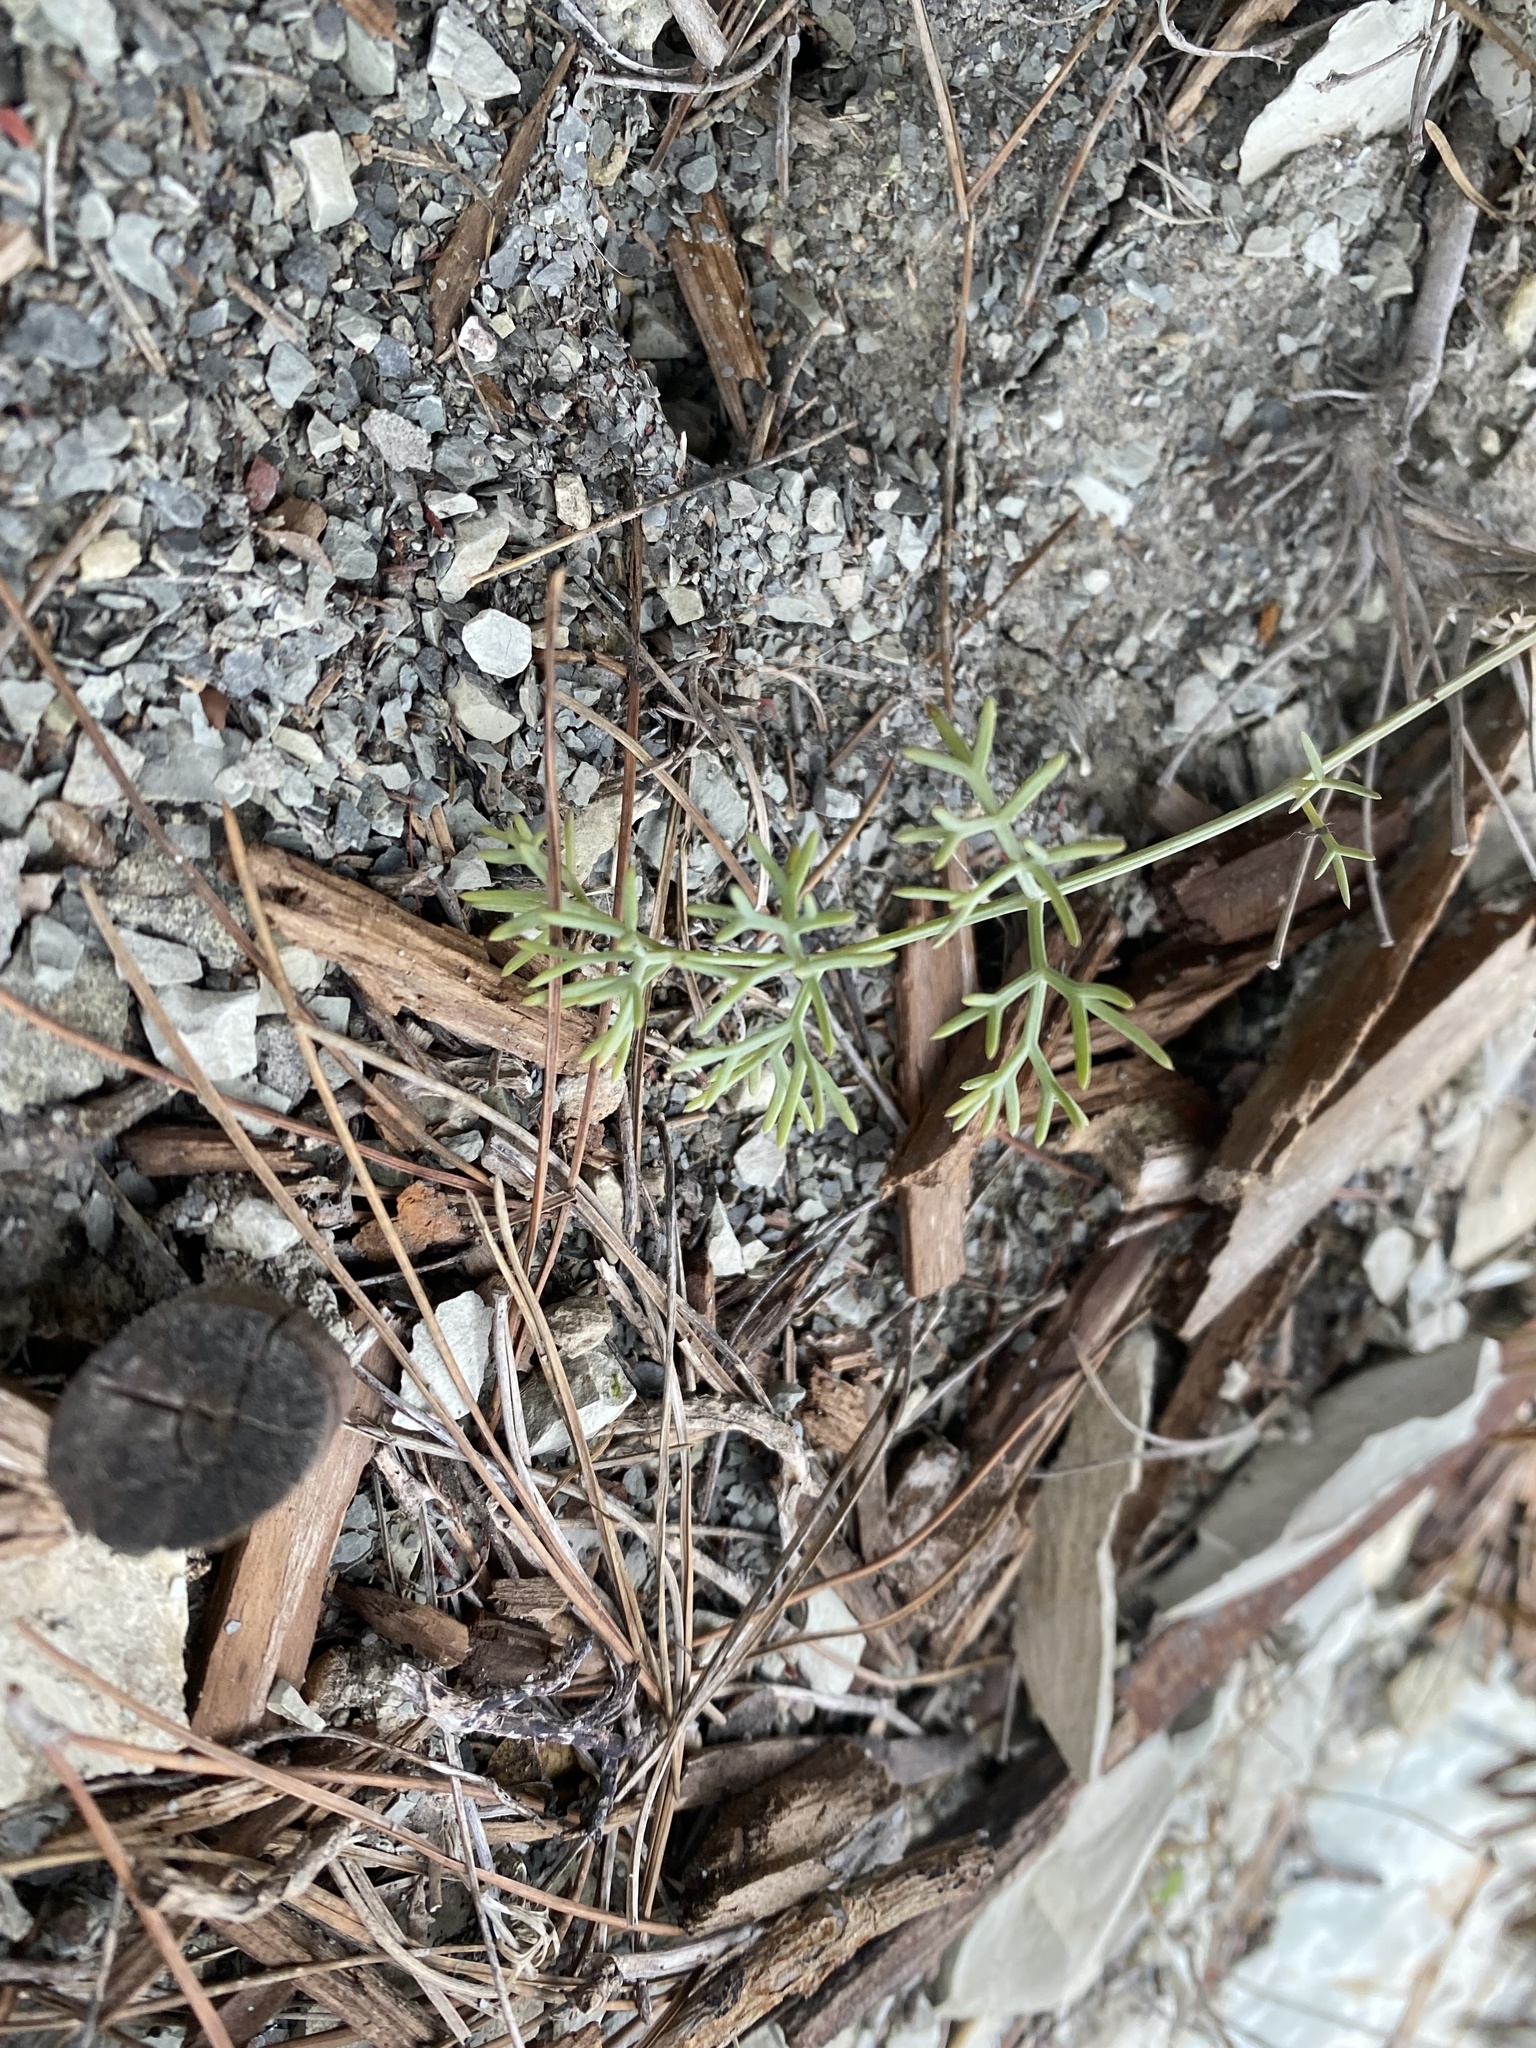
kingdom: Plantae
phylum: Tracheophyta
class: Magnoliopsida
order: Apiales
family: Apiaceae
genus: Seseli
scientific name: Seseli ponticum
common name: Pontic seseli
